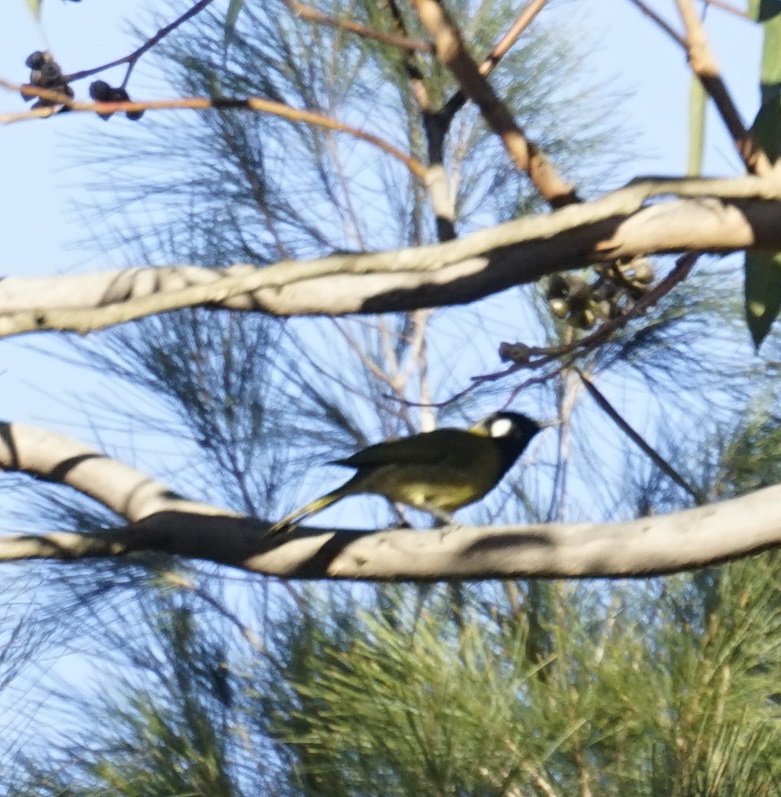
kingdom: Animalia
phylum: Chordata
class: Aves
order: Passeriformes
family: Meliphagidae
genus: Nesoptilotis
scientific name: Nesoptilotis leucotis
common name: White-eared honeyeater
